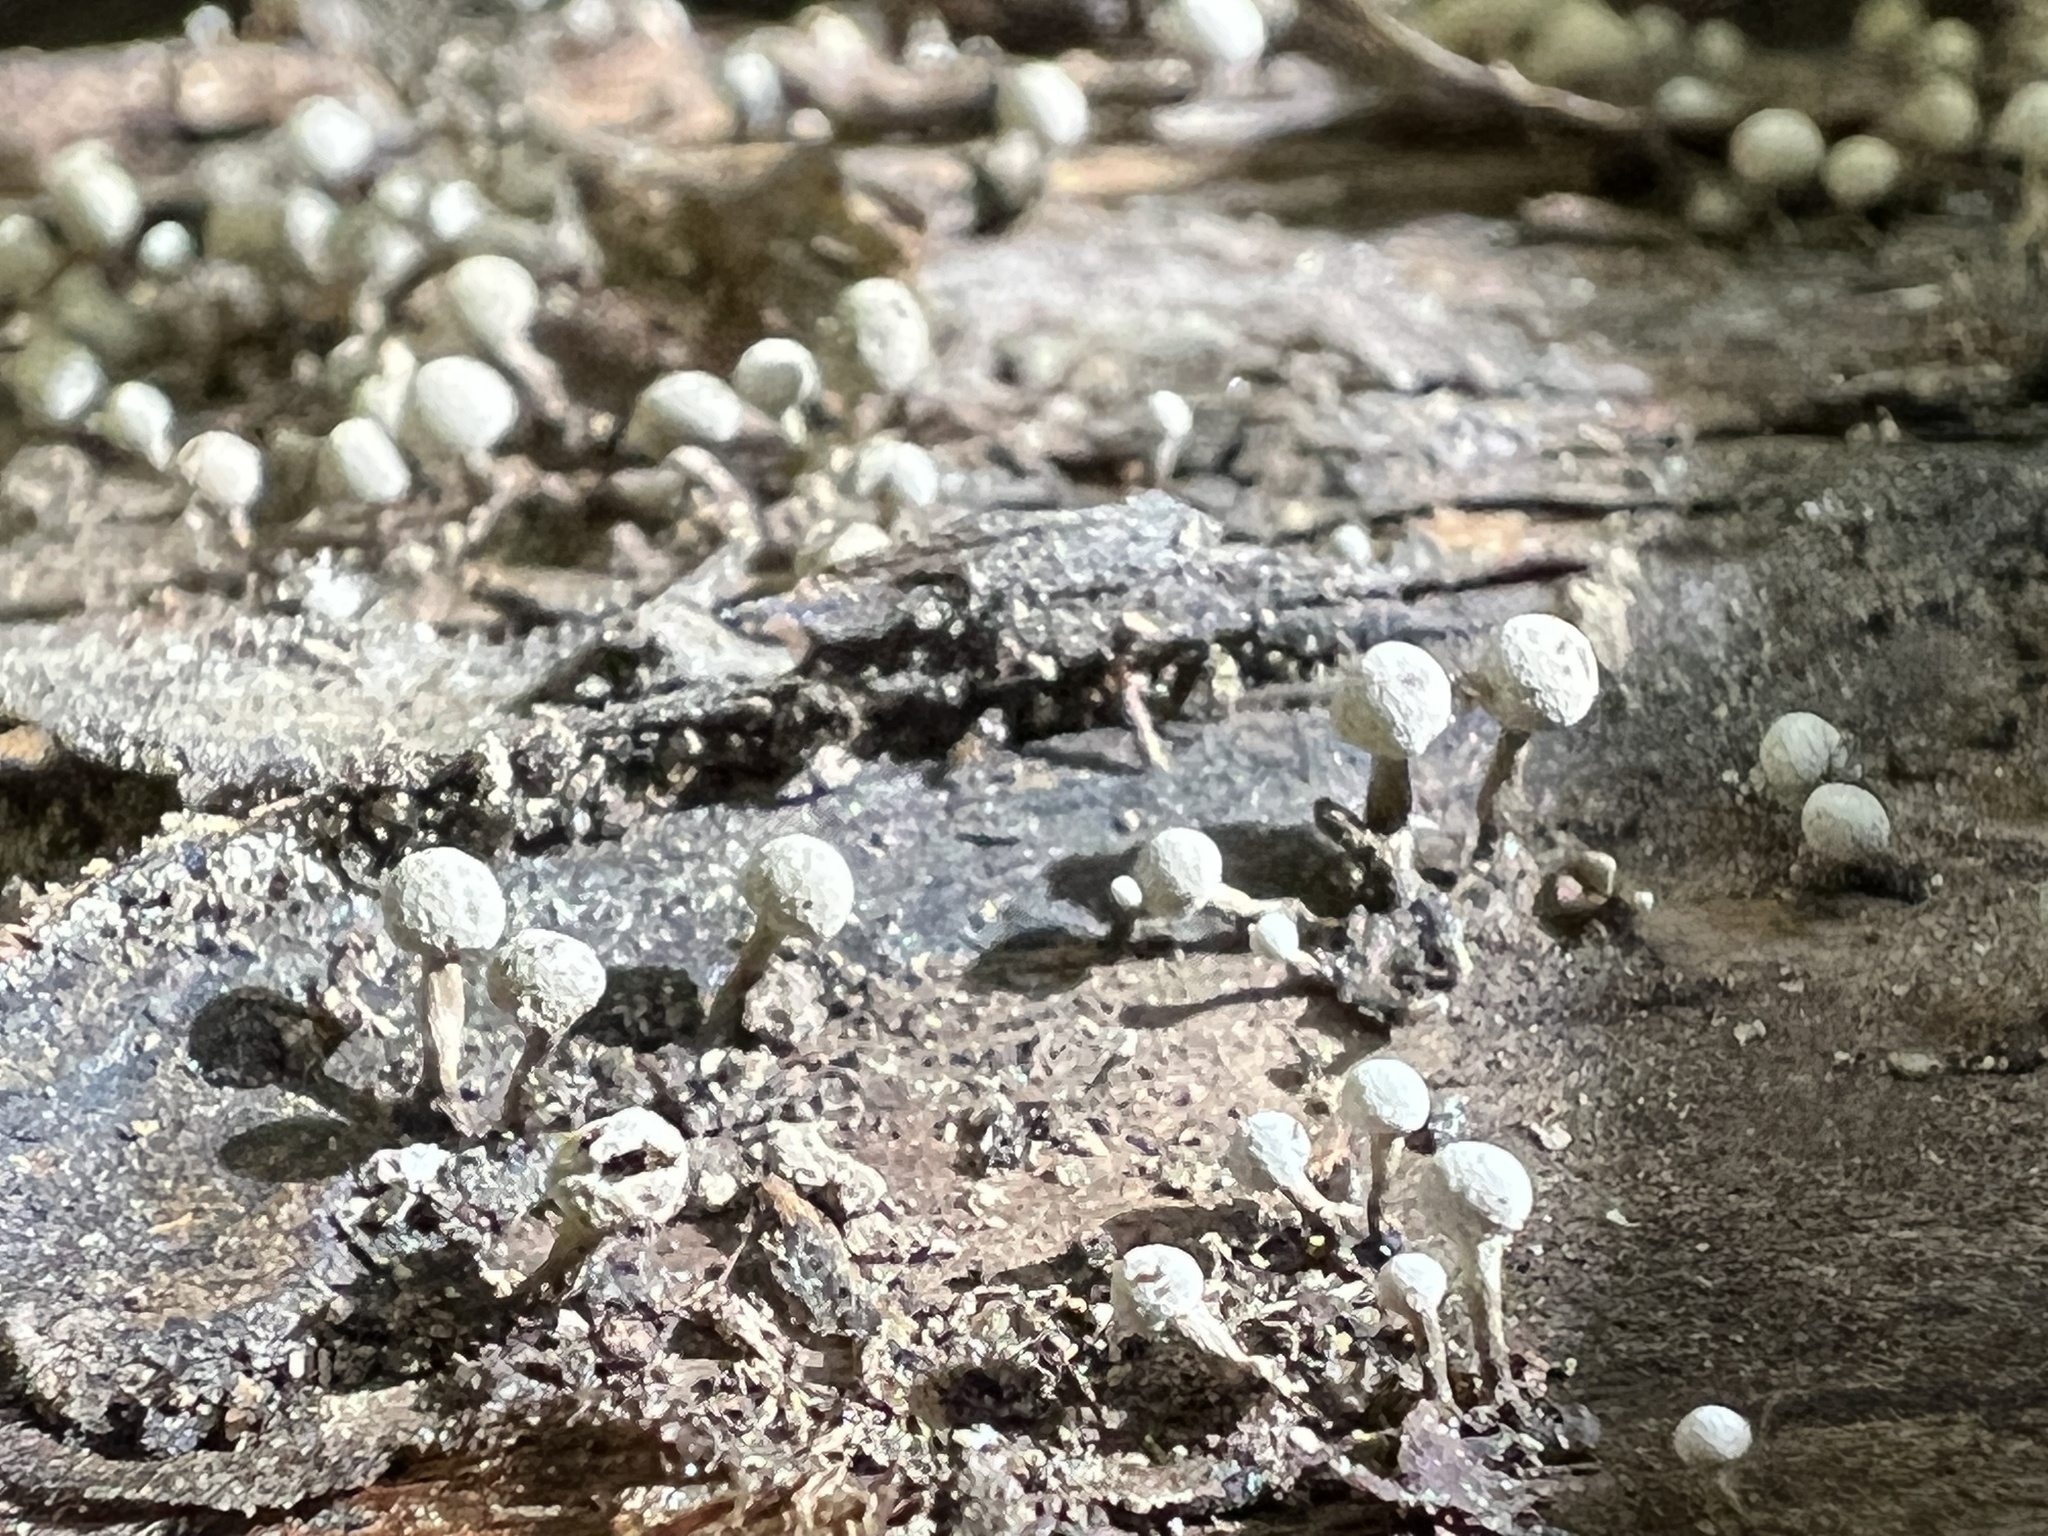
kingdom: Fungi
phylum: Basidiomycota
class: Atractiellomycetes
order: Atractiellales
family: Phleogenaceae
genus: Phleogena
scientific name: Phleogena faginea
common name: Fenugreek stalkball
